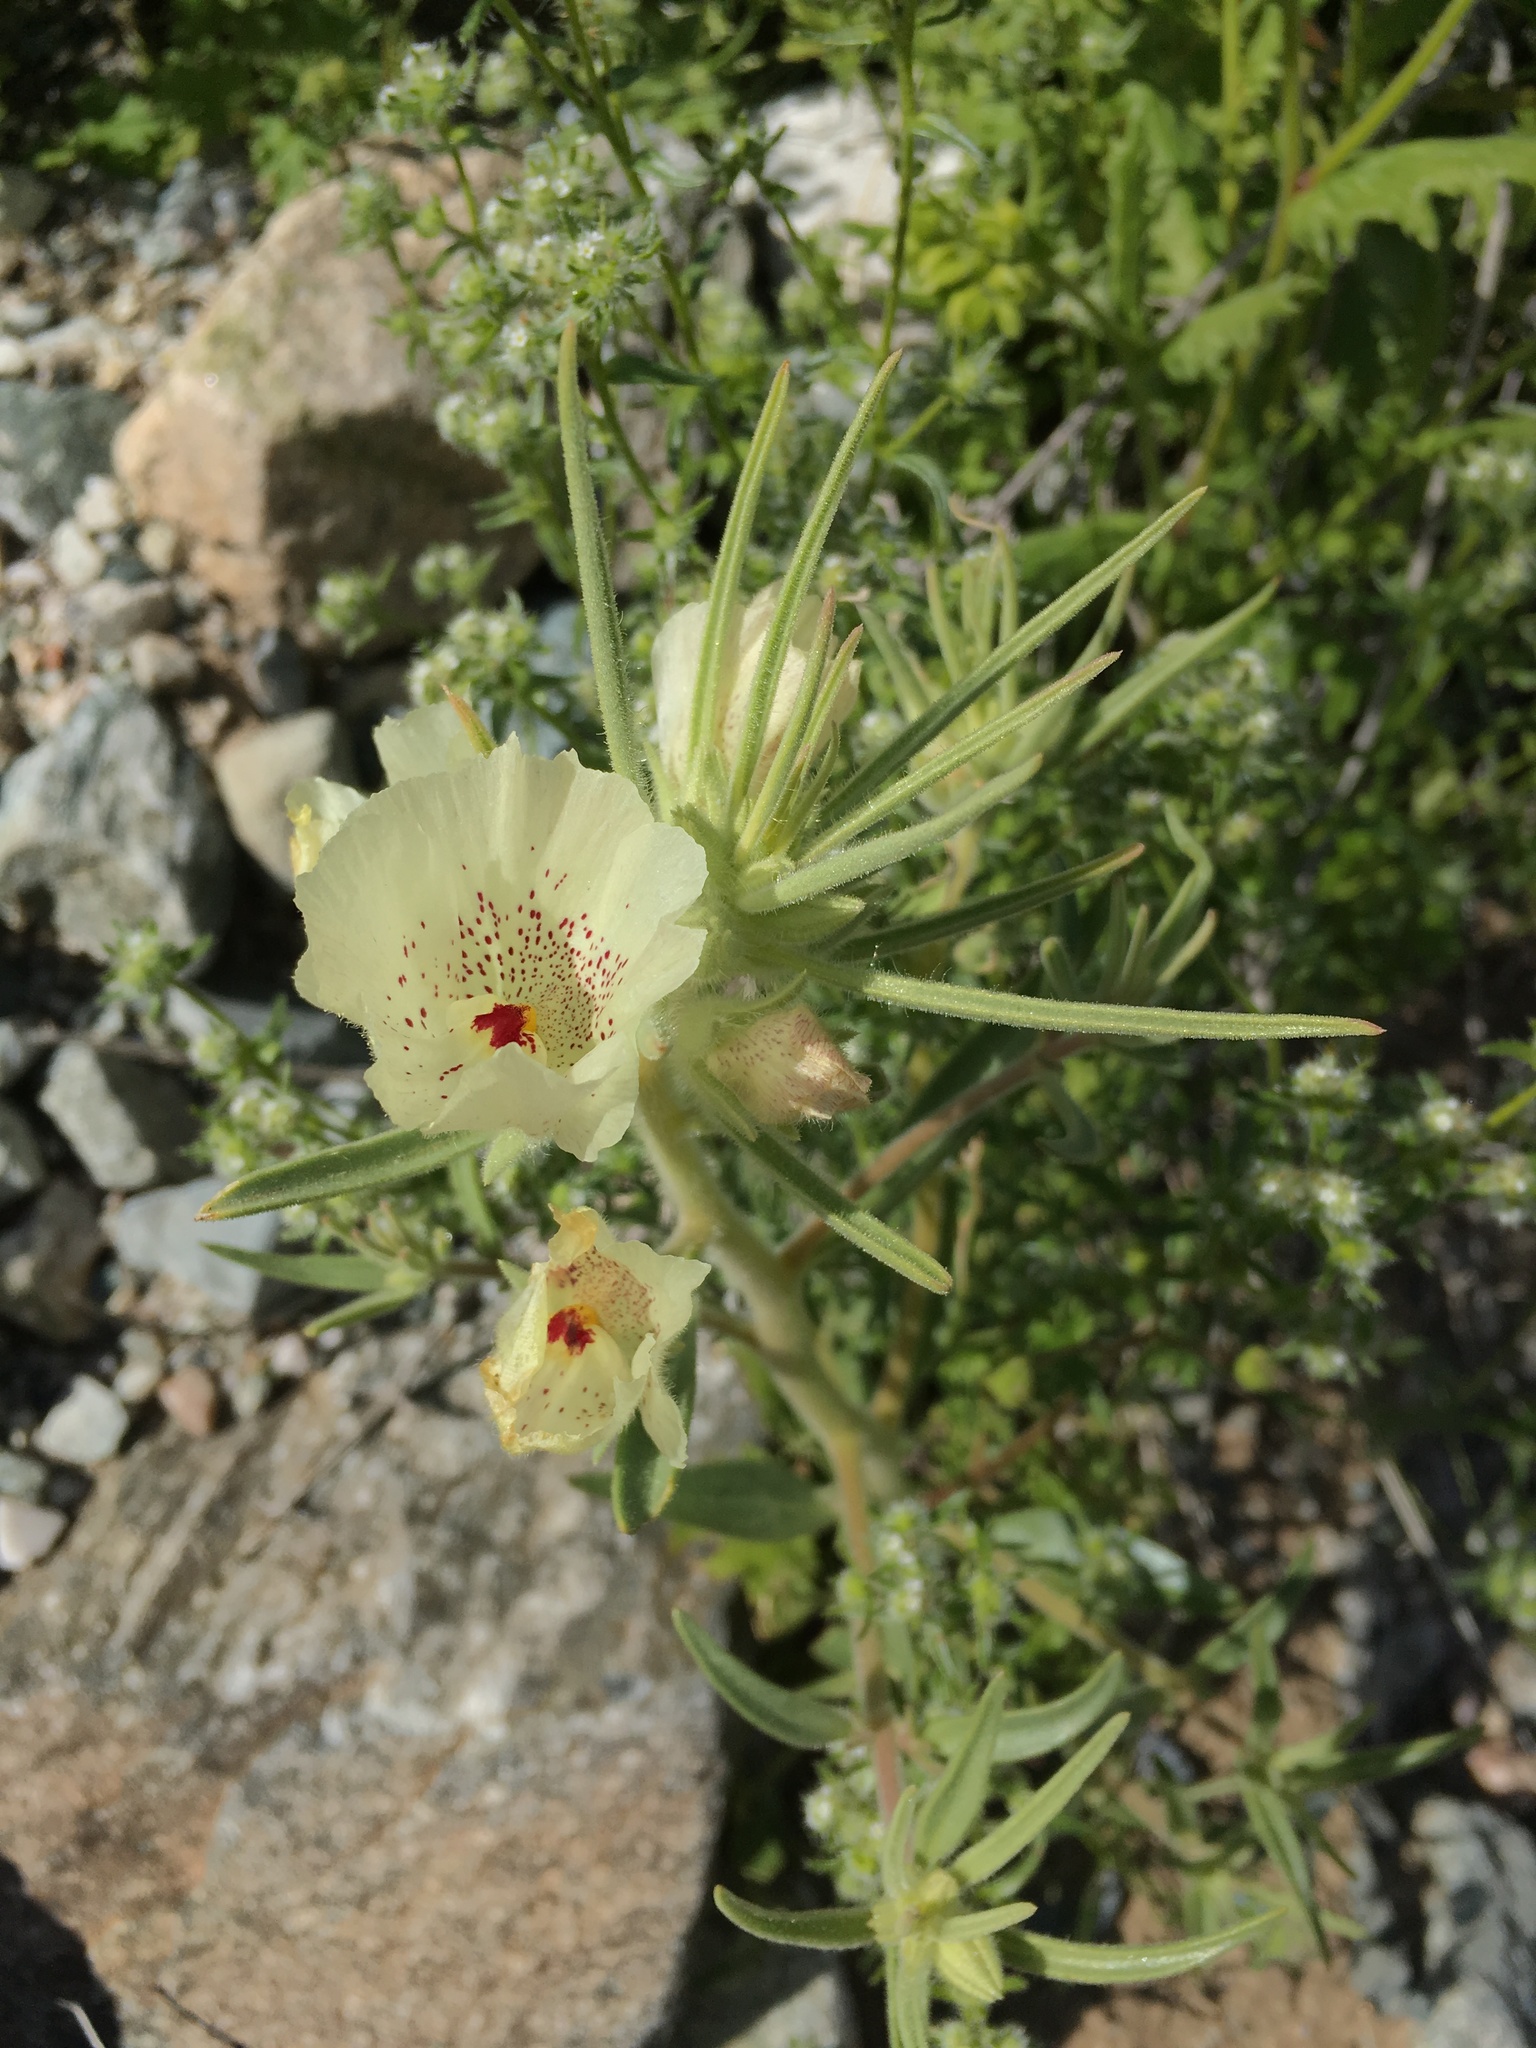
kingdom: Plantae
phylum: Tracheophyta
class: Magnoliopsida
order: Lamiales
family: Plantaginaceae
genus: Mohavea
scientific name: Mohavea confertiflora
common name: Ghost flower
